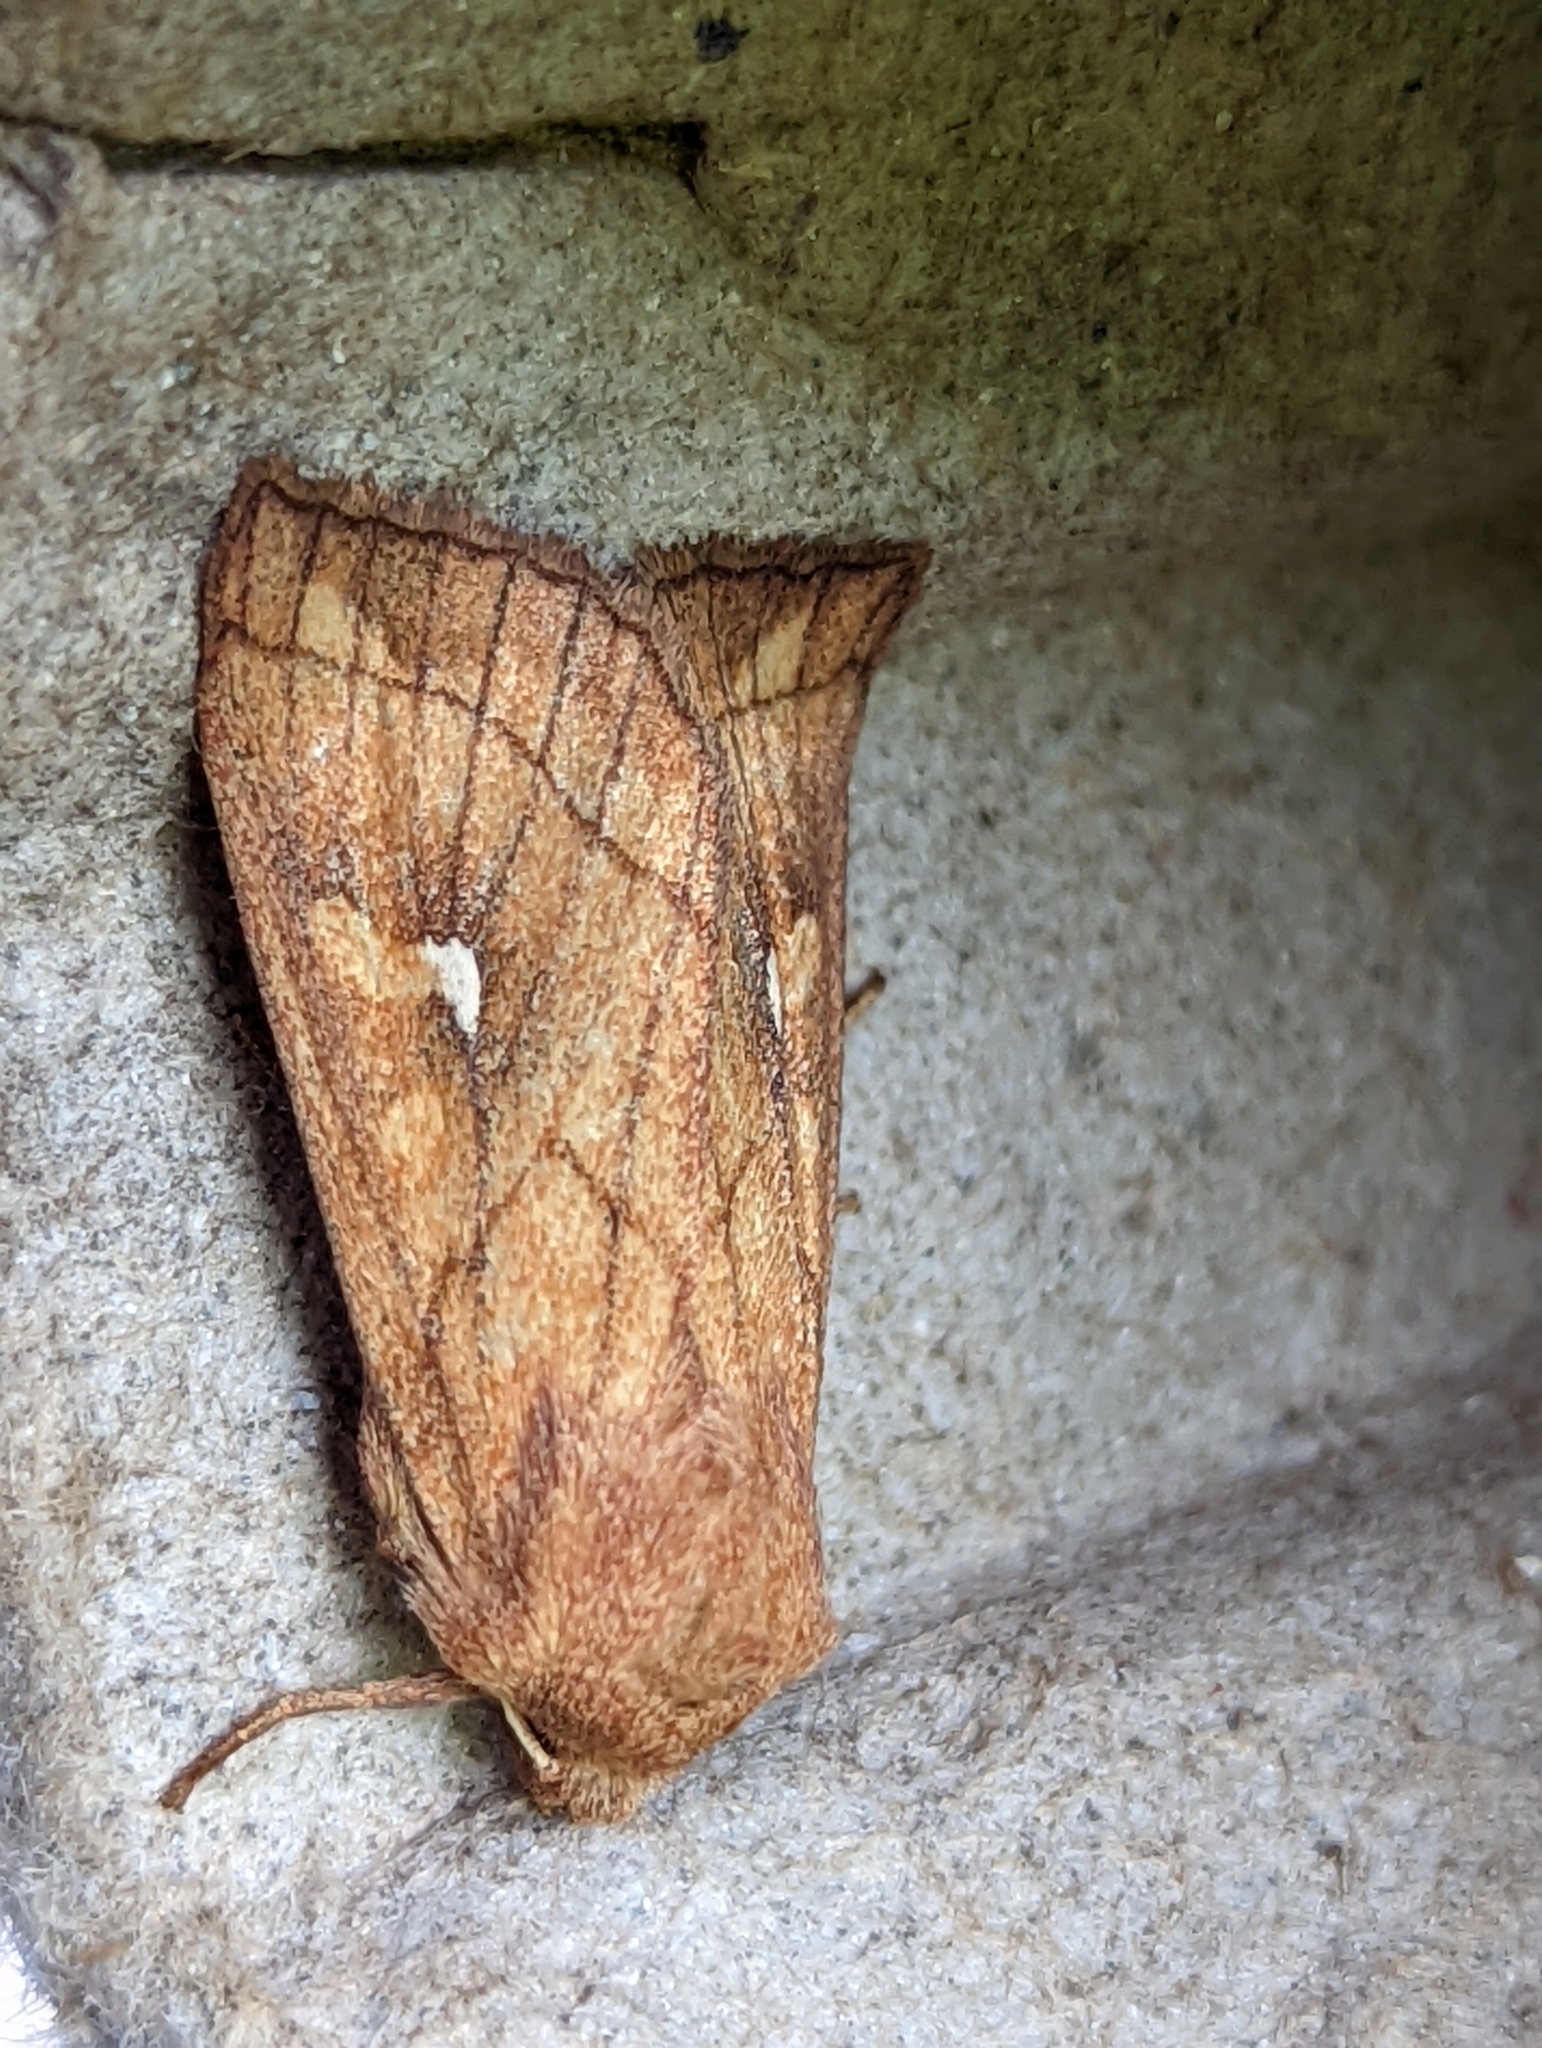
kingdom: Animalia
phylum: Arthropoda
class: Insecta
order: Lepidoptera
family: Noctuidae
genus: Mythimna
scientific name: Mythimna conigera
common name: Brown-line bright-eye
